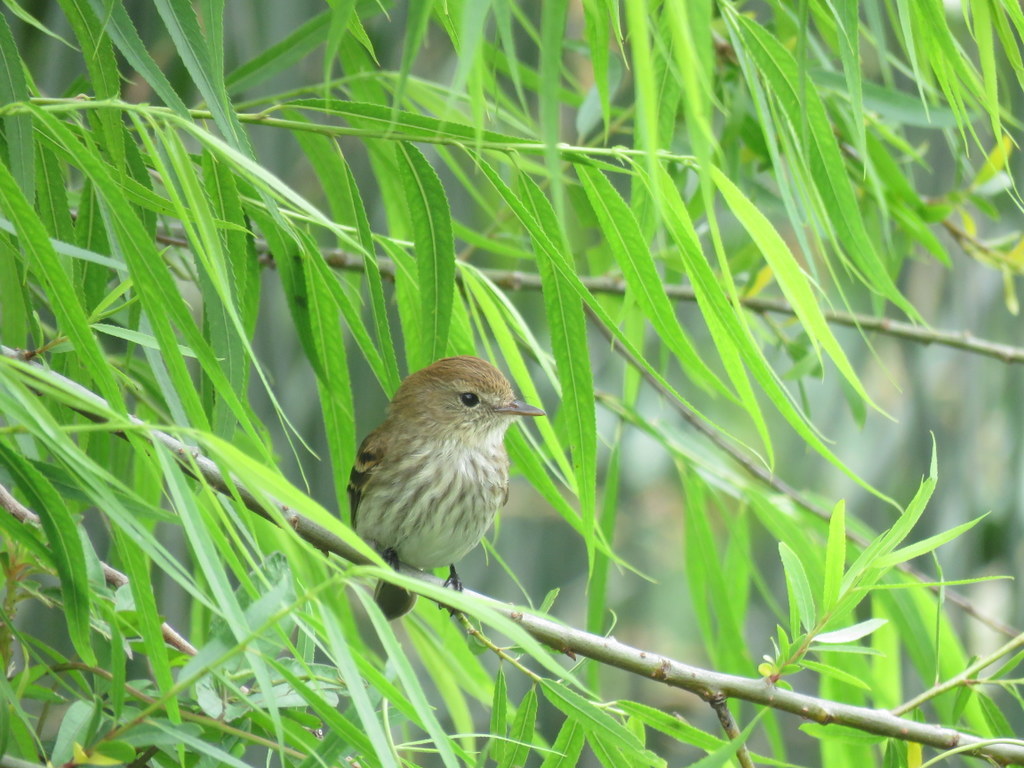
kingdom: Animalia
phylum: Chordata
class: Aves
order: Passeriformes
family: Tyrannidae
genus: Myiophobus
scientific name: Myiophobus fasciatus
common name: Bran-colored flycatcher
